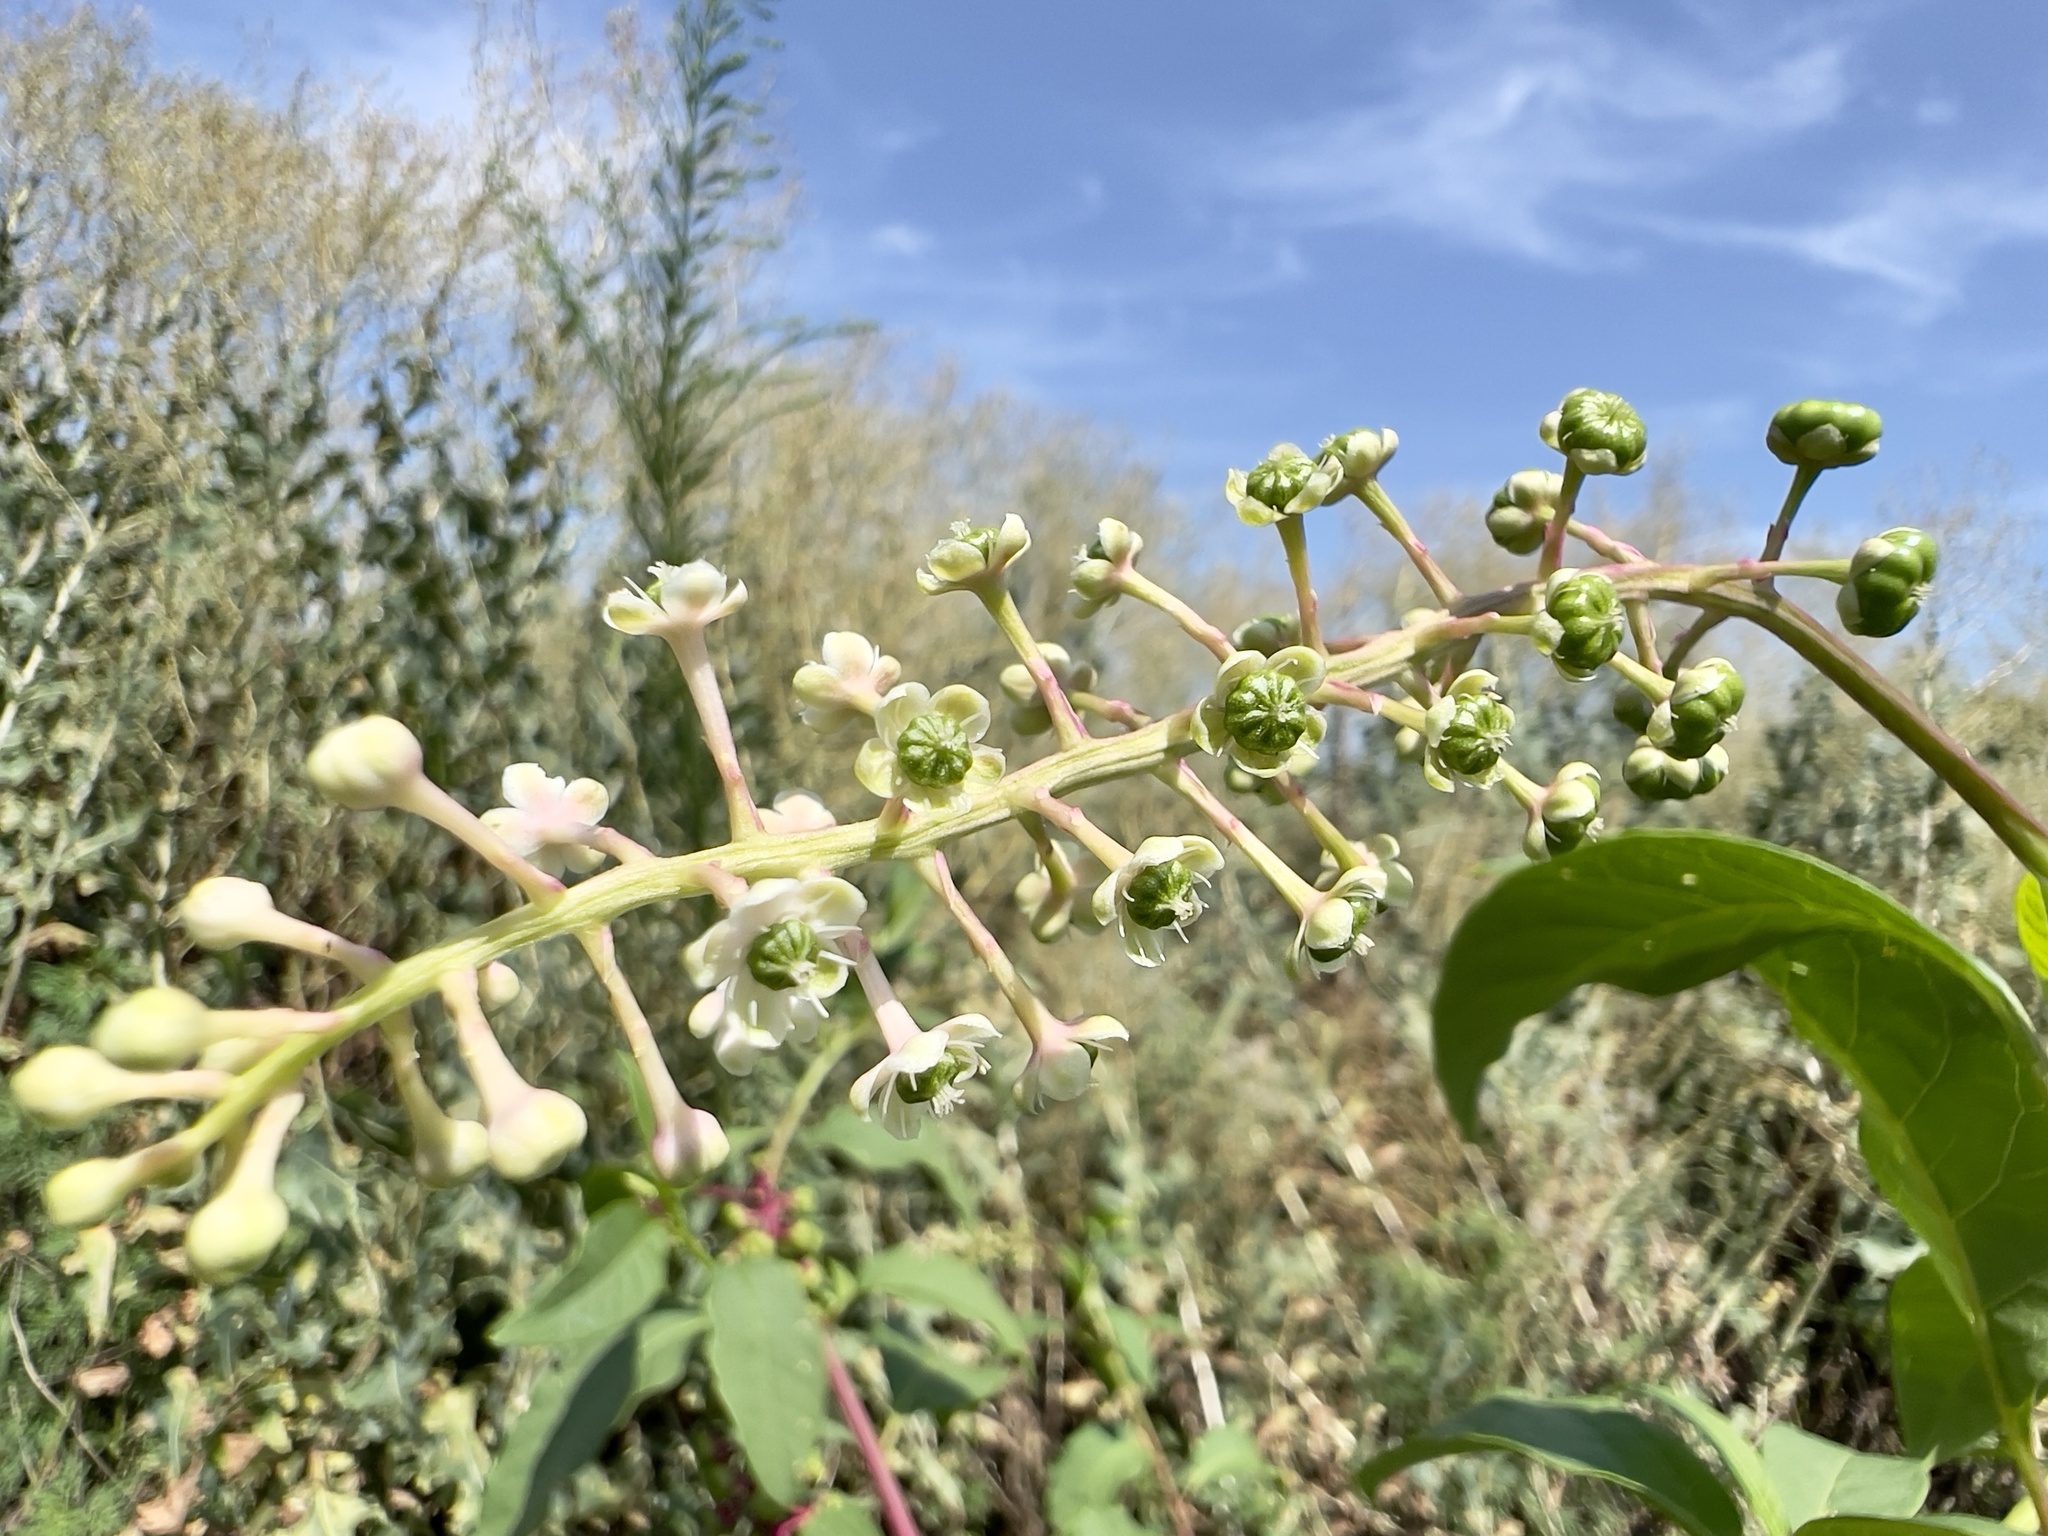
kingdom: Plantae
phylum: Tracheophyta
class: Magnoliopsida
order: Caryophyllales
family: Phytolaccaceae
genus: Phytolacca
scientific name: Phytolacca americana
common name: American pokeweed
